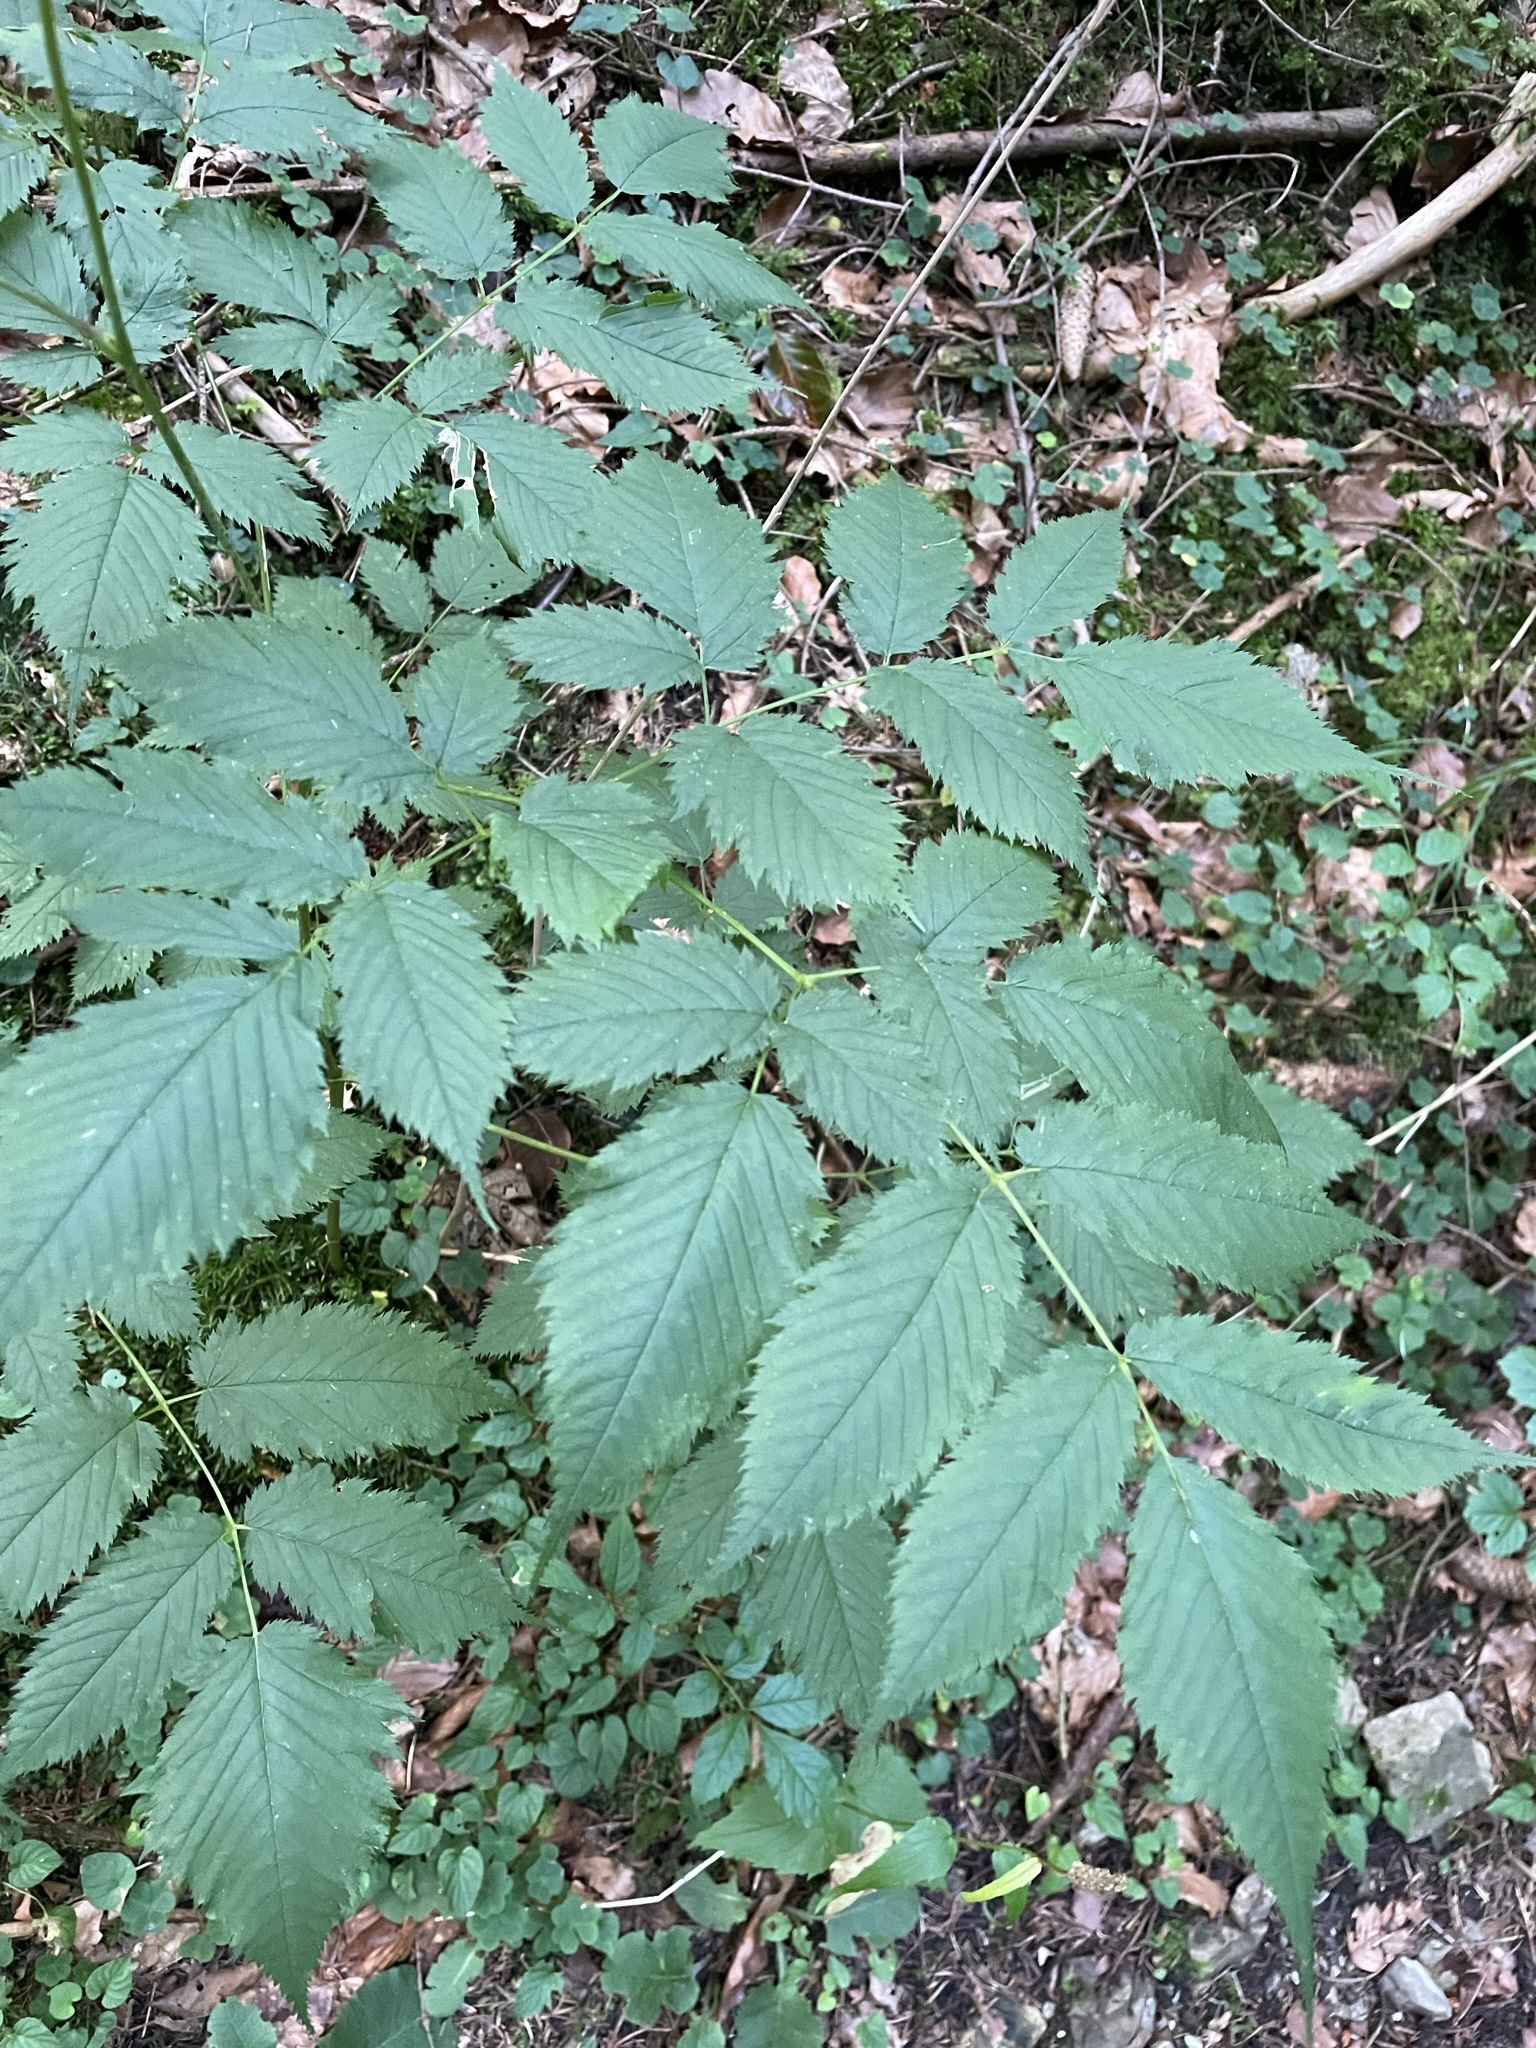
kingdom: Plantae
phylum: Tracheophyta
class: Magnoliopsida
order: Rosales
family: Rosaceae
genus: Aruncus
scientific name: Aruncus dioicus
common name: Buck's-beard
